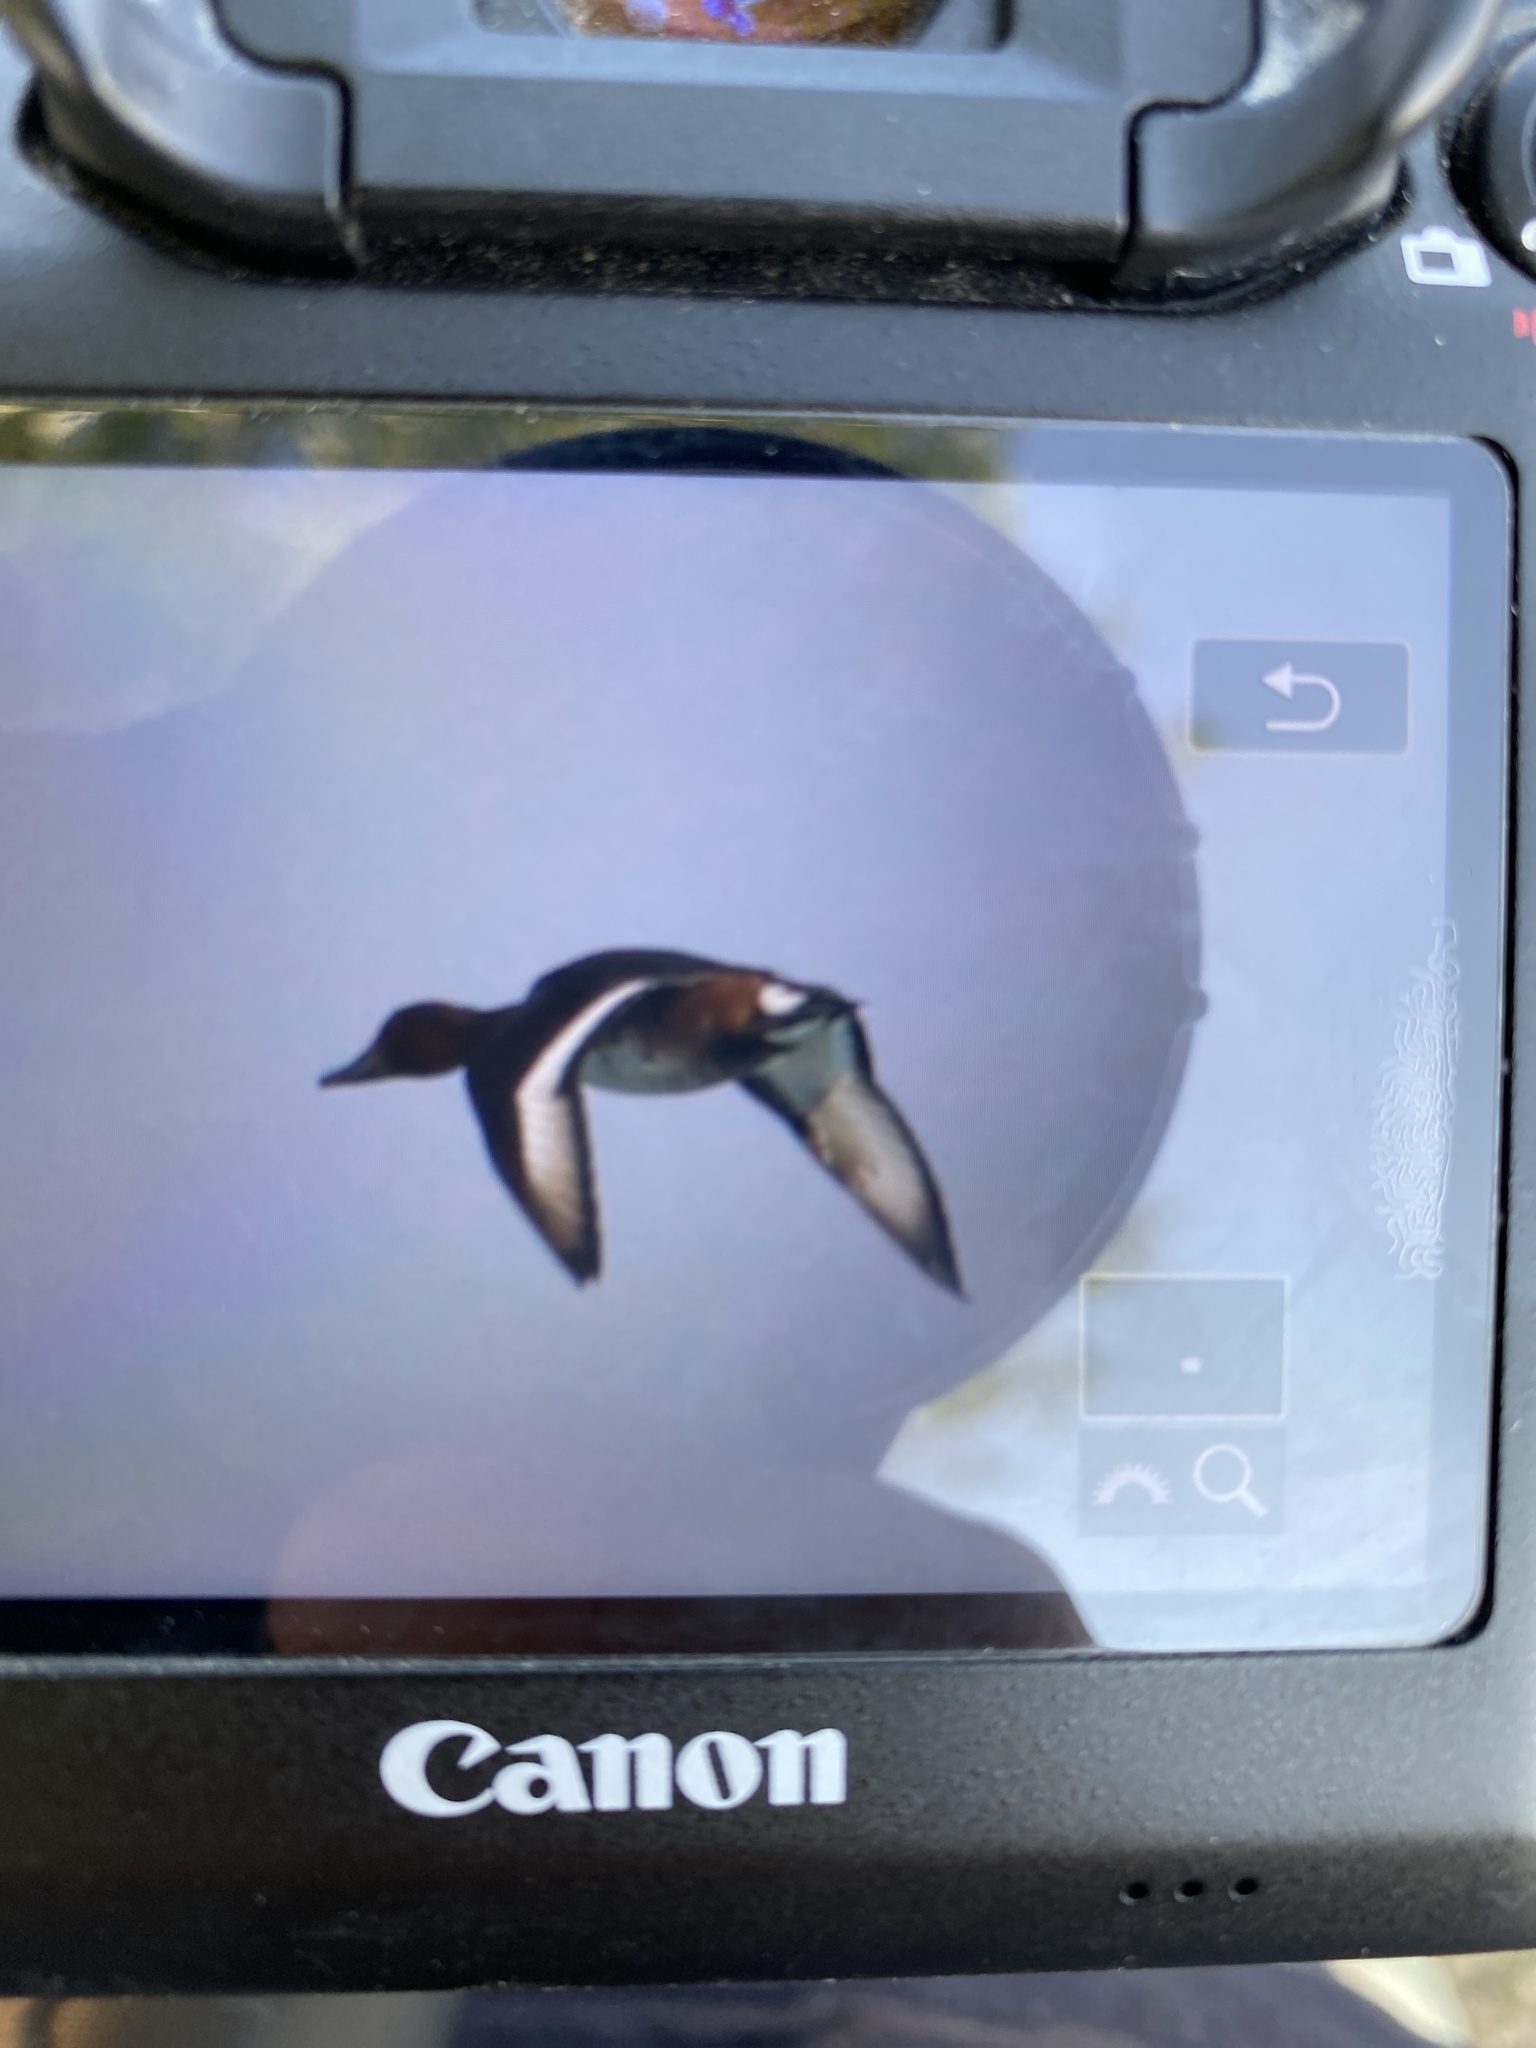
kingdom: Animalia
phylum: Chordata
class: Aves
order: Anseriformes
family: Anatidae
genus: Aythya
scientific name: Aythya nyroca
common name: Ferruginous duck
